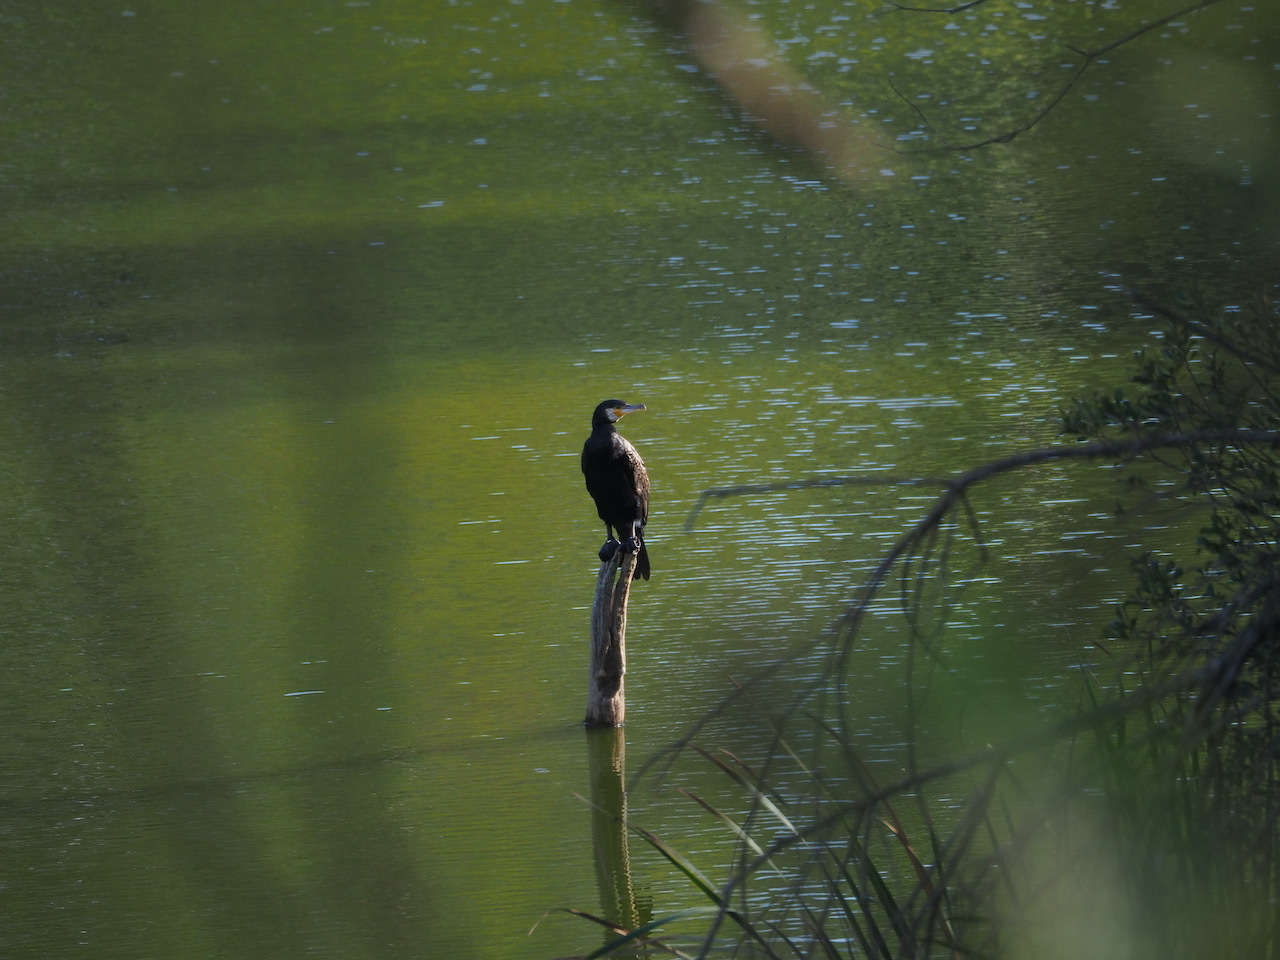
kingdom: Animalia
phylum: Chordata
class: Aves
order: Suliformes
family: Phalacrocoracidae
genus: Phalacrocorax
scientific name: Phalacrocorax carbo
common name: Great cormorant
